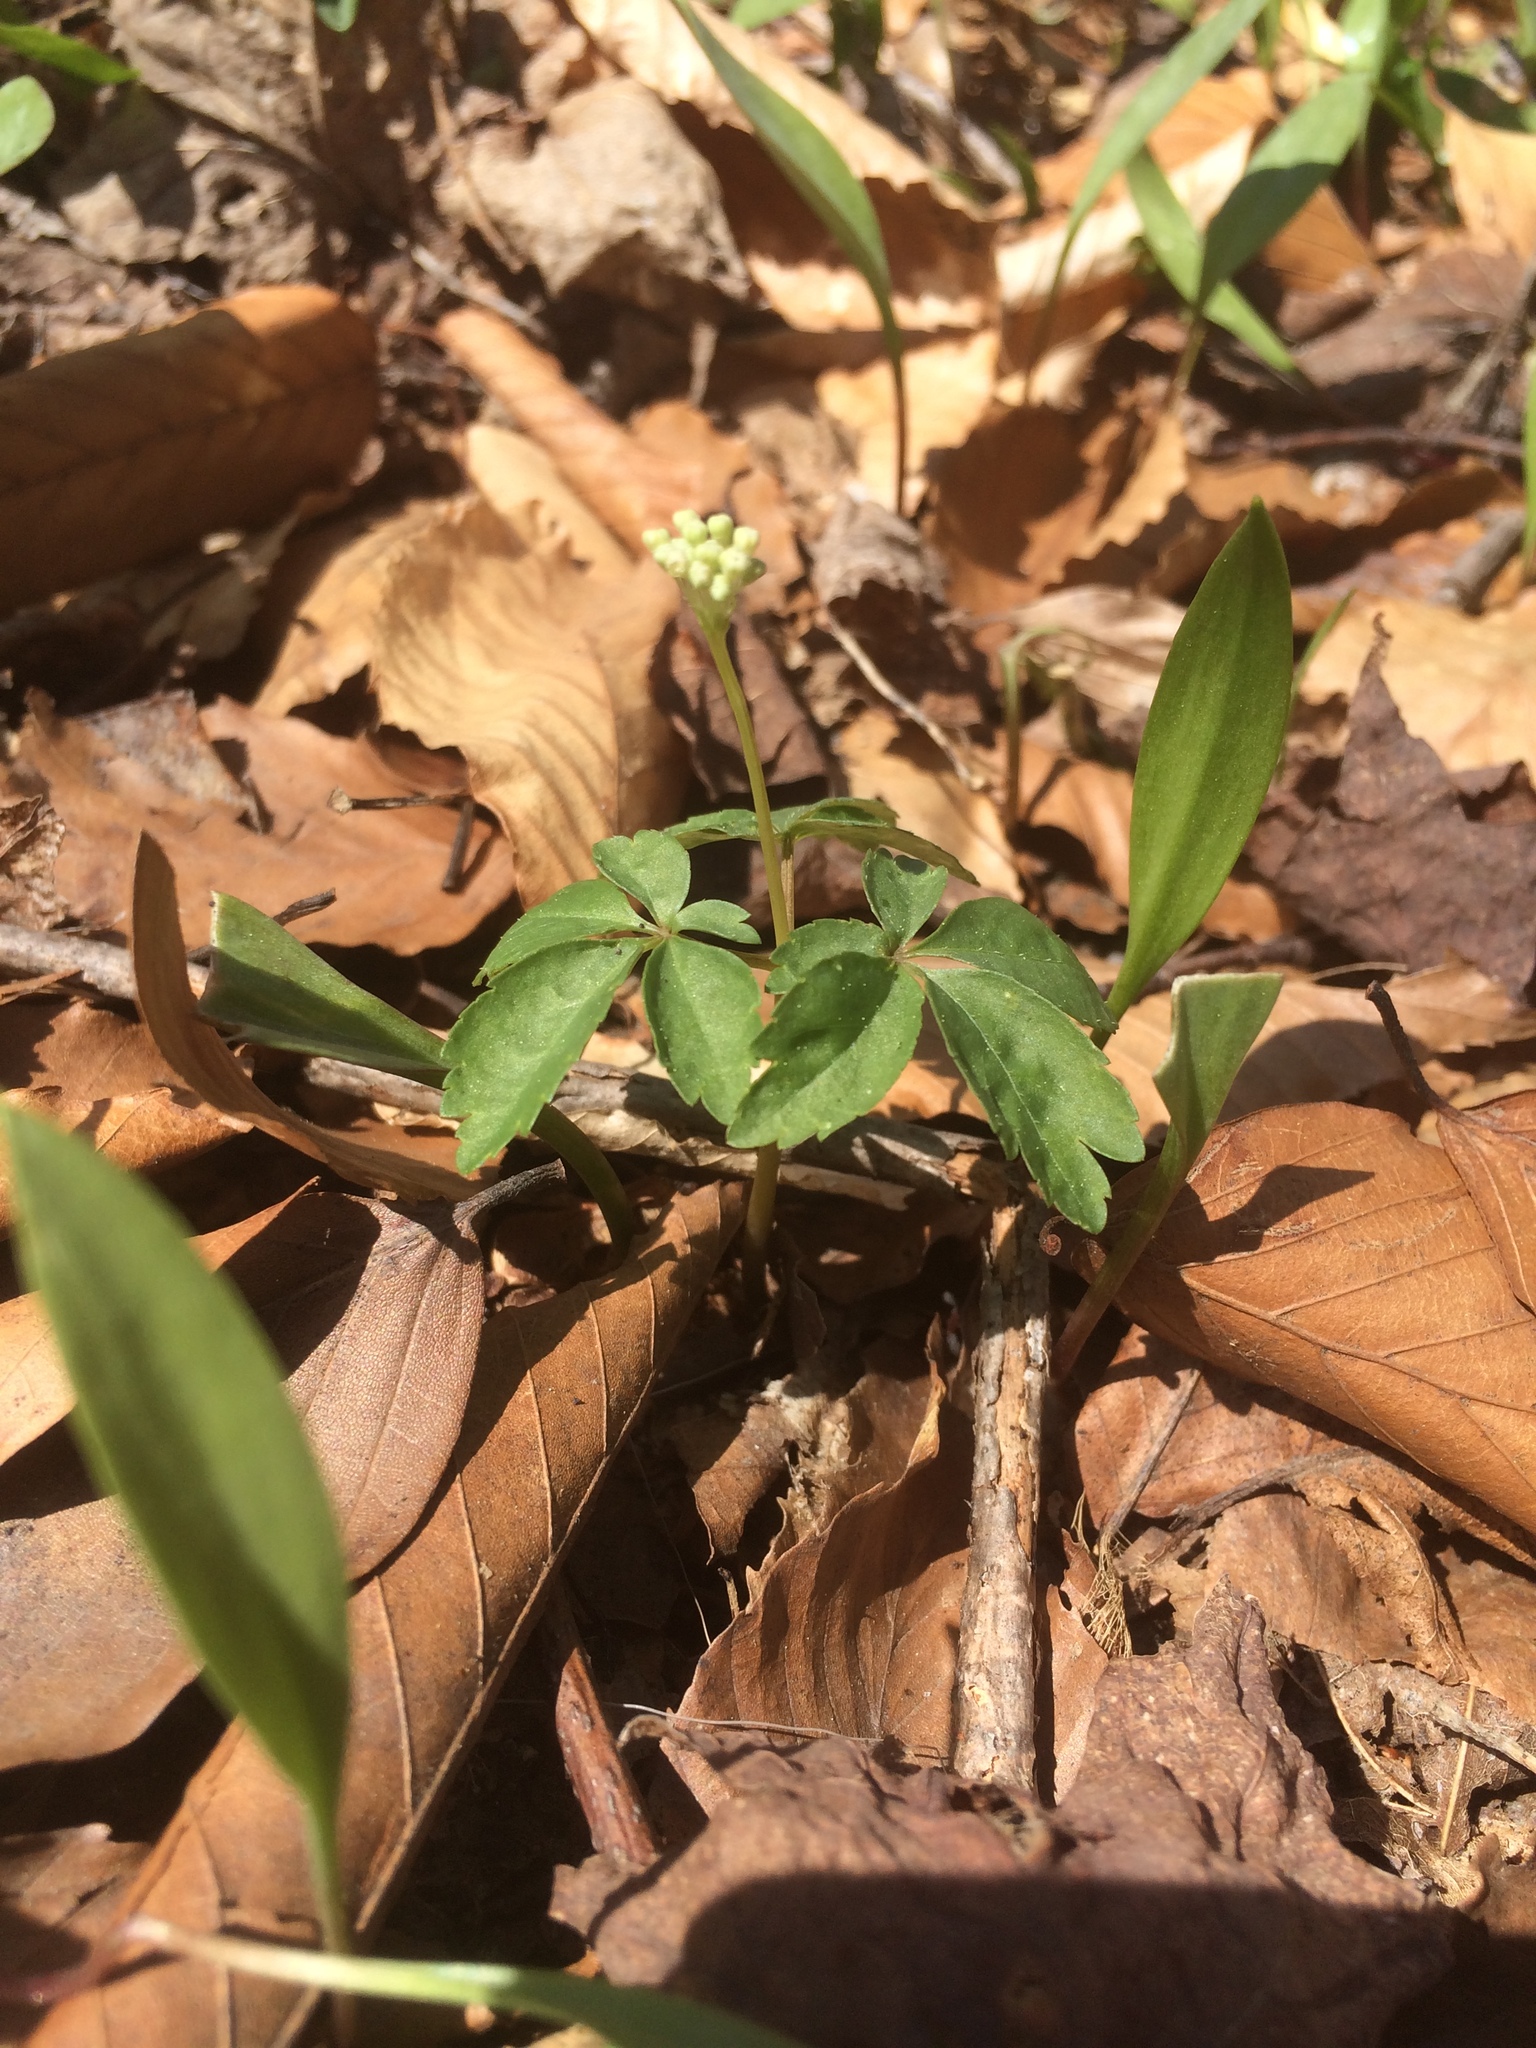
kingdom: Plantae
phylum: Tracheophyta
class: Magnoliopsida
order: Apiales
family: Araliaceae
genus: Panax
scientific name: Panax trifolius
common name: Dwarf ginseng
